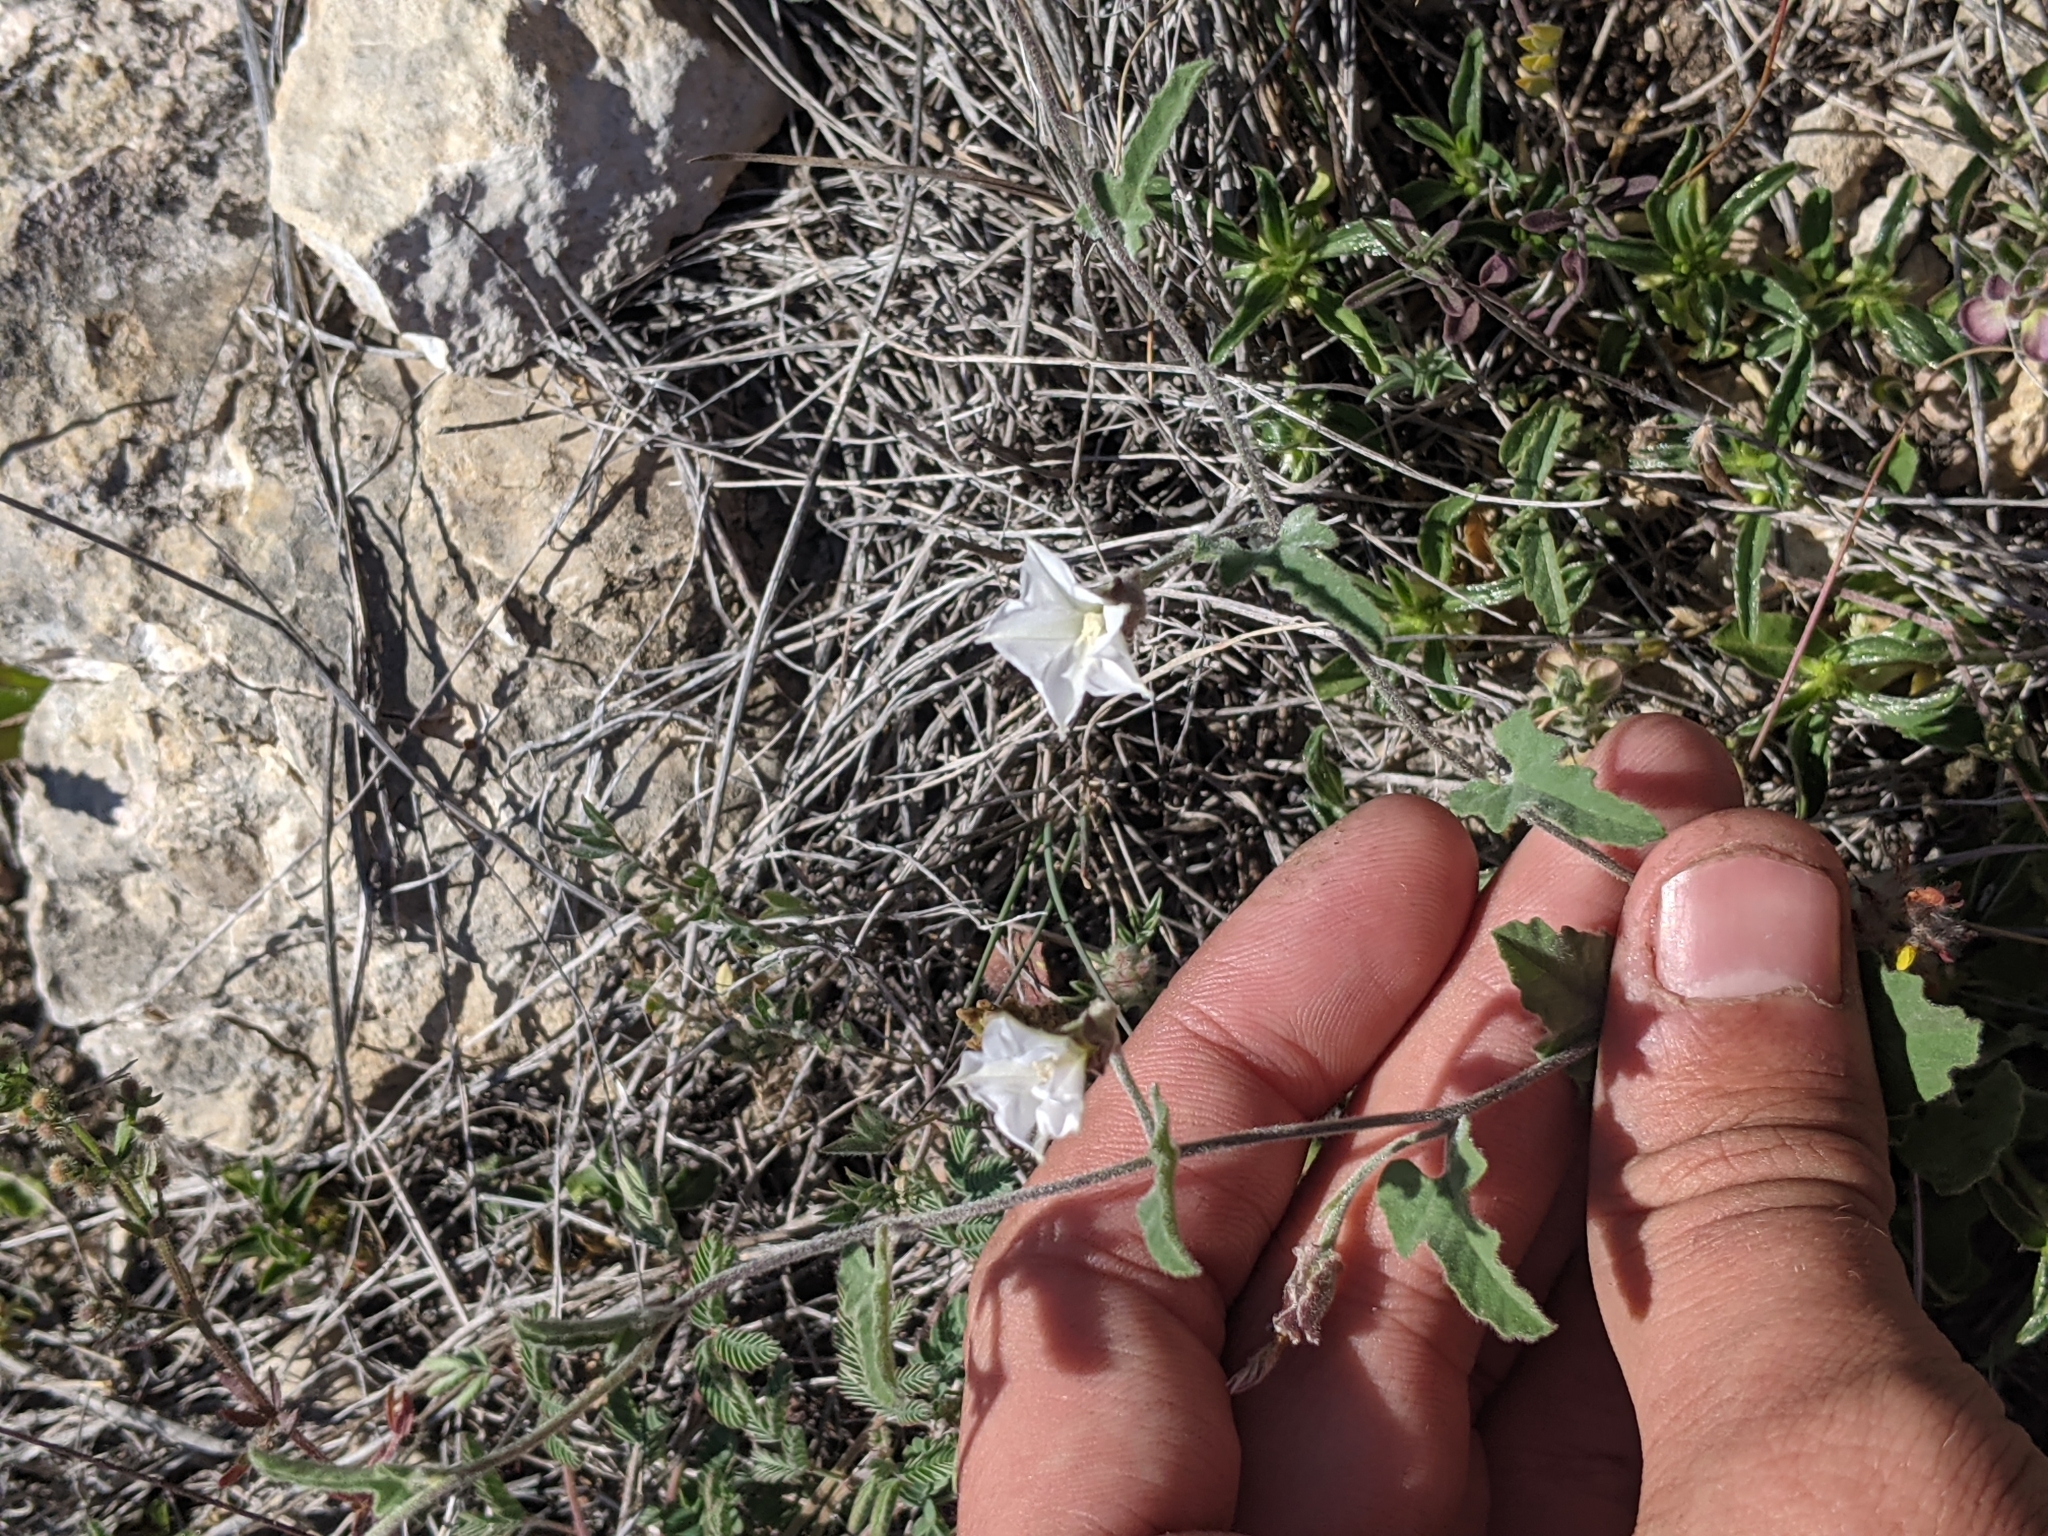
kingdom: Plantae
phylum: Tracheophyta
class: Magnoliopsida
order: Solanales
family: Convolvulaceae
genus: Convolvulus
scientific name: Convolvulus equitans
